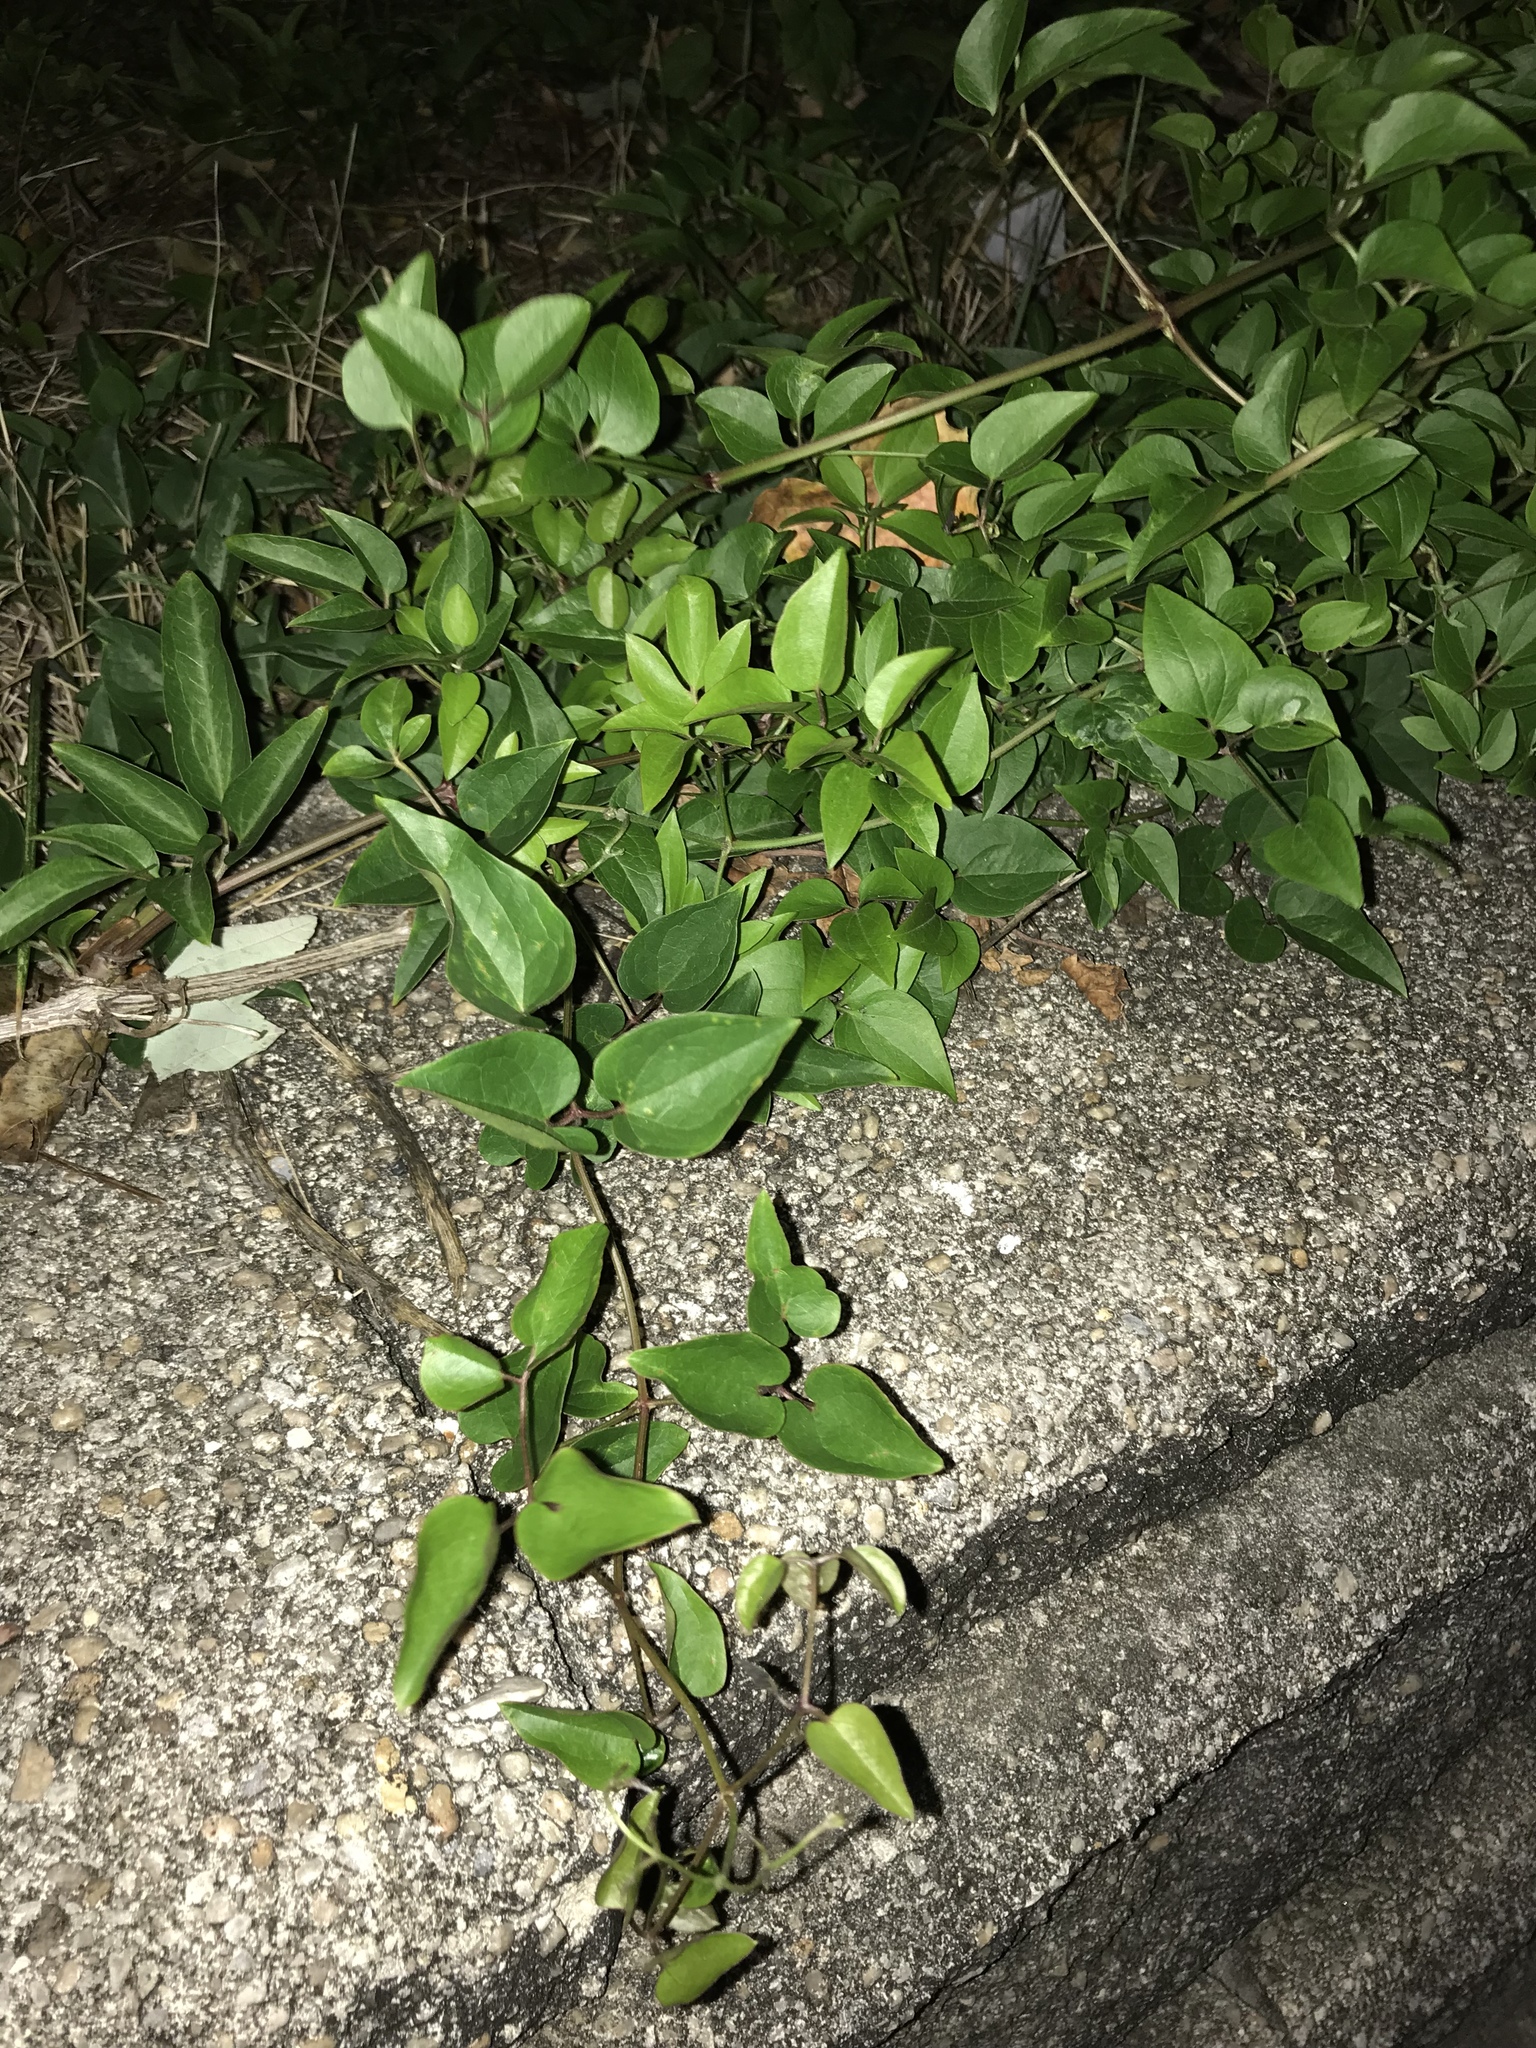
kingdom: Plantae
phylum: Tracheophyta
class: Magnoliopsida
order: Ranunculales
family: Ranunculaceae
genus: Clematis
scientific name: Clematis terniflora
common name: Sweet autumn clematis
